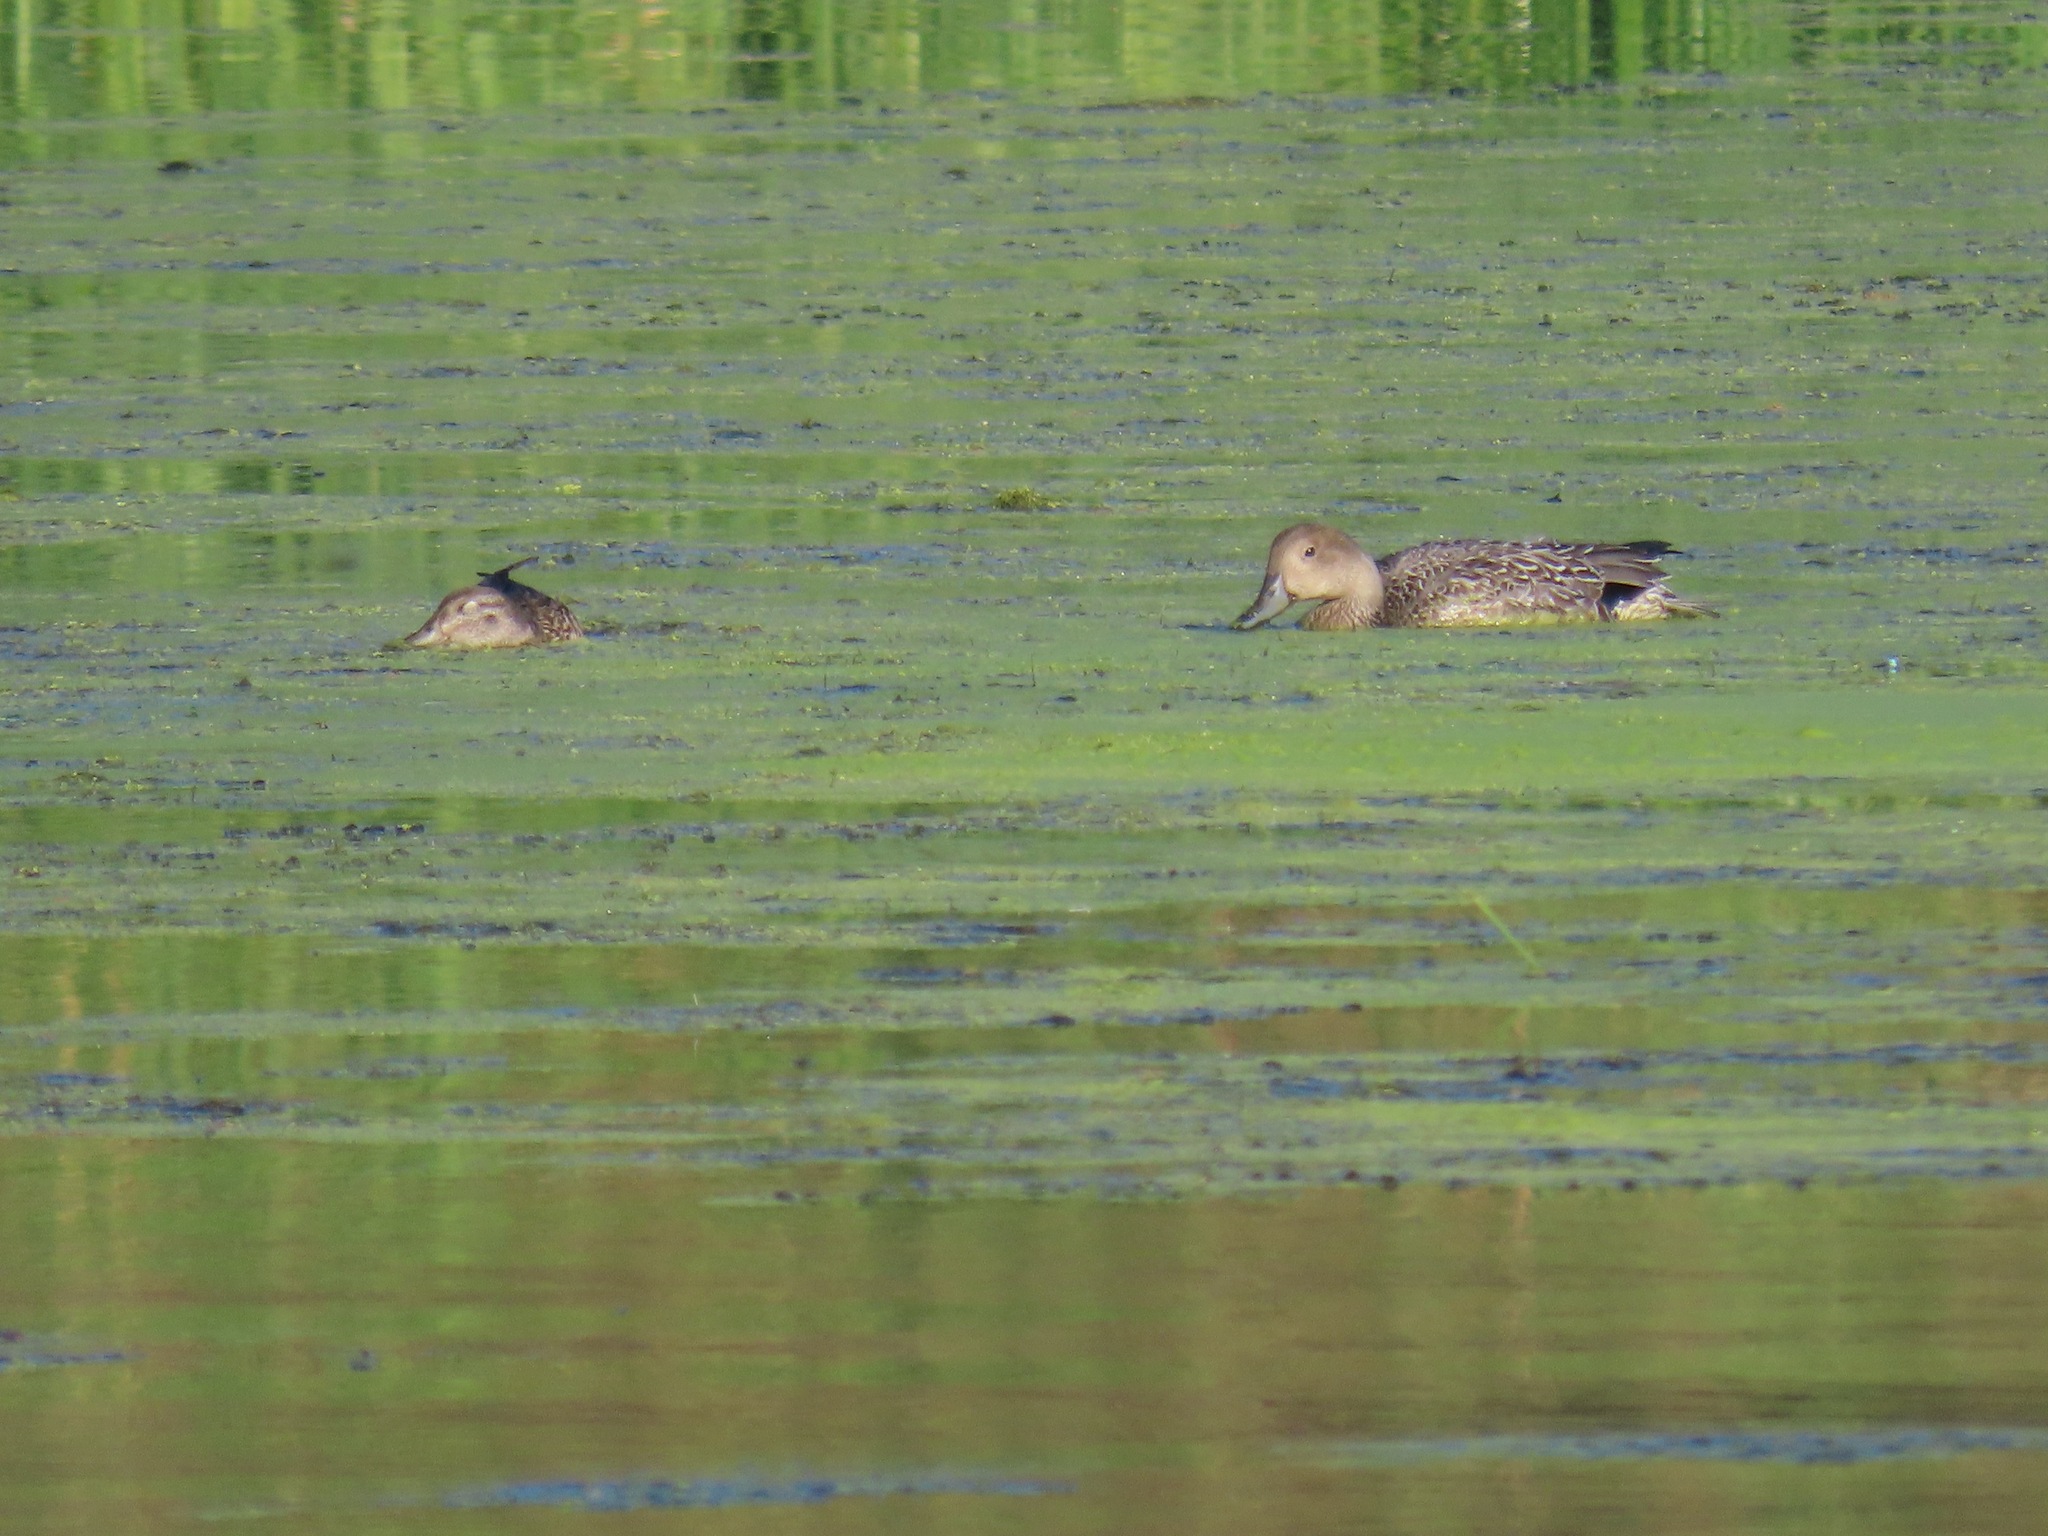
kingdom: Animalia
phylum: Chordata
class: Aves
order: Anseriformes
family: Anatidae
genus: Anas
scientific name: Anas acuta
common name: Northern pintail
